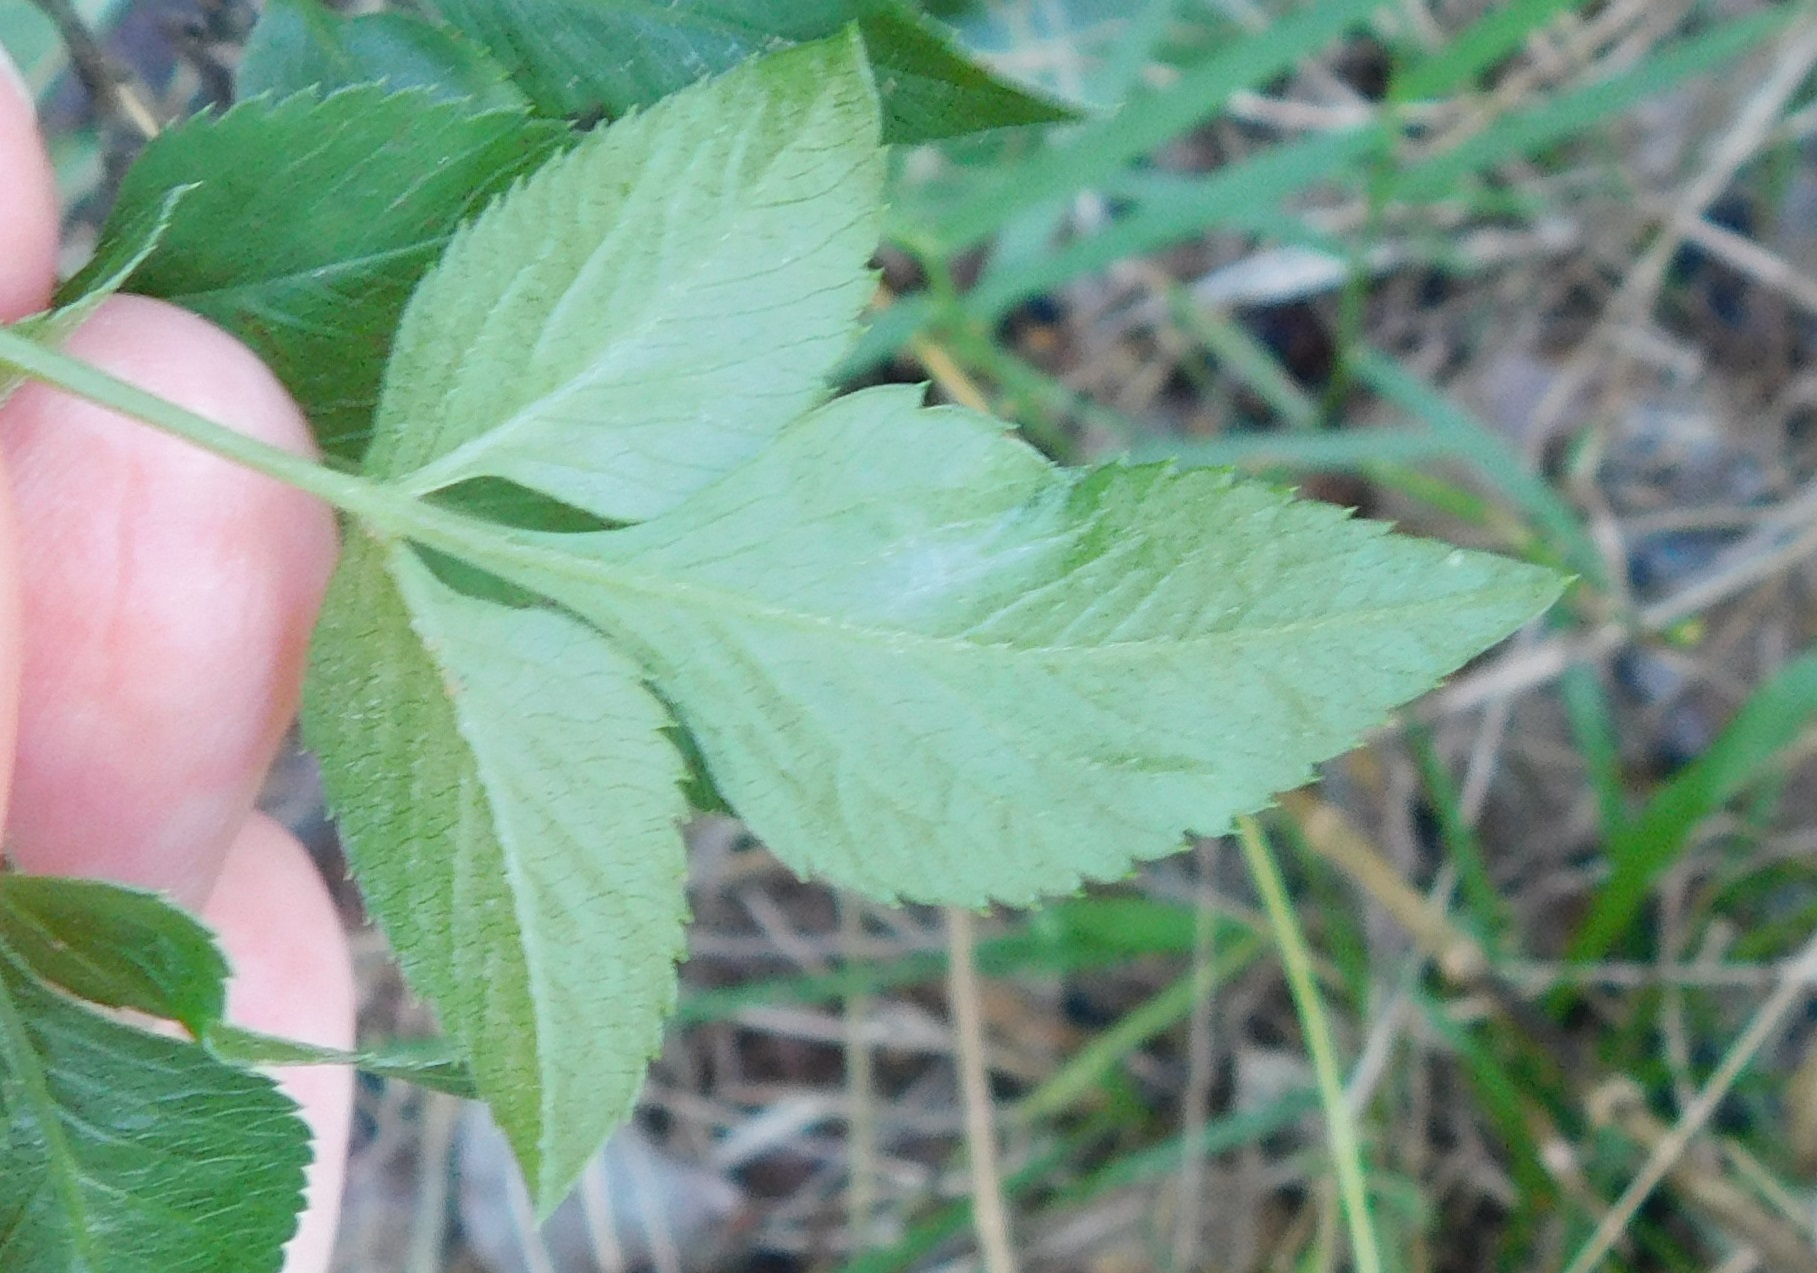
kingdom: Plantae
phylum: Tracheophyta
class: Magnoliopsida
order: Asterales
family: Asteraceae
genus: Bidens
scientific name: Bidens alba
